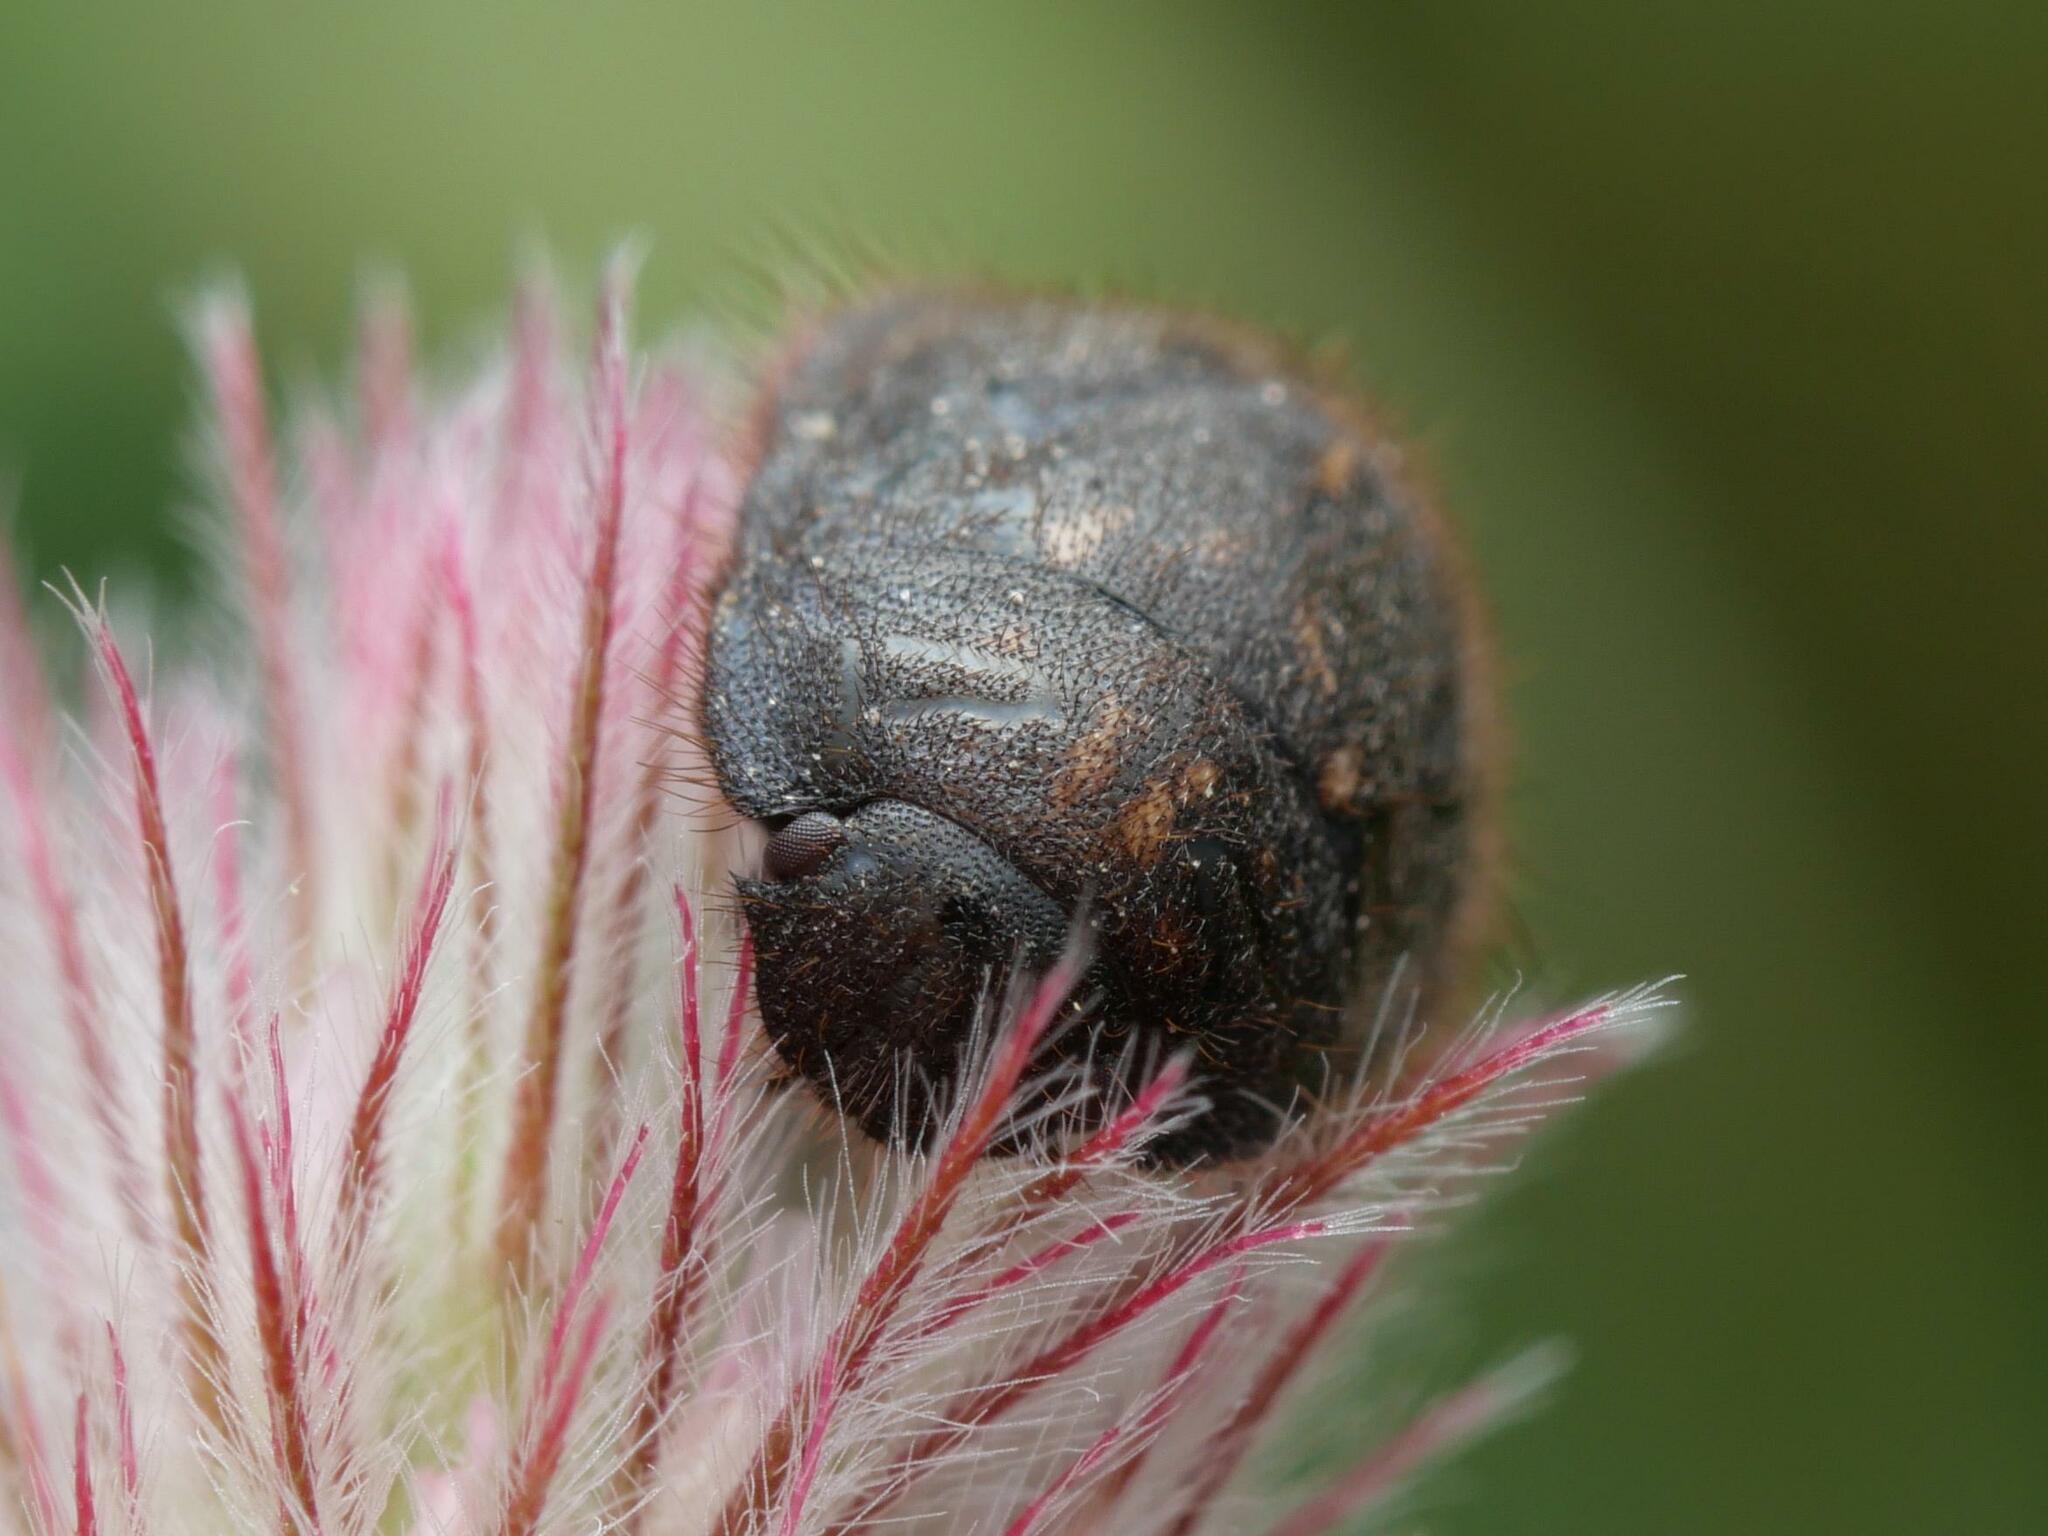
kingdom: Animalia
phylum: Arthropoda
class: Insecta
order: Hemiptera
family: Scutelleridae
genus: Odontoscelis
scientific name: Odontoscelis fuliginosa
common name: Greater streaked shieldbug
